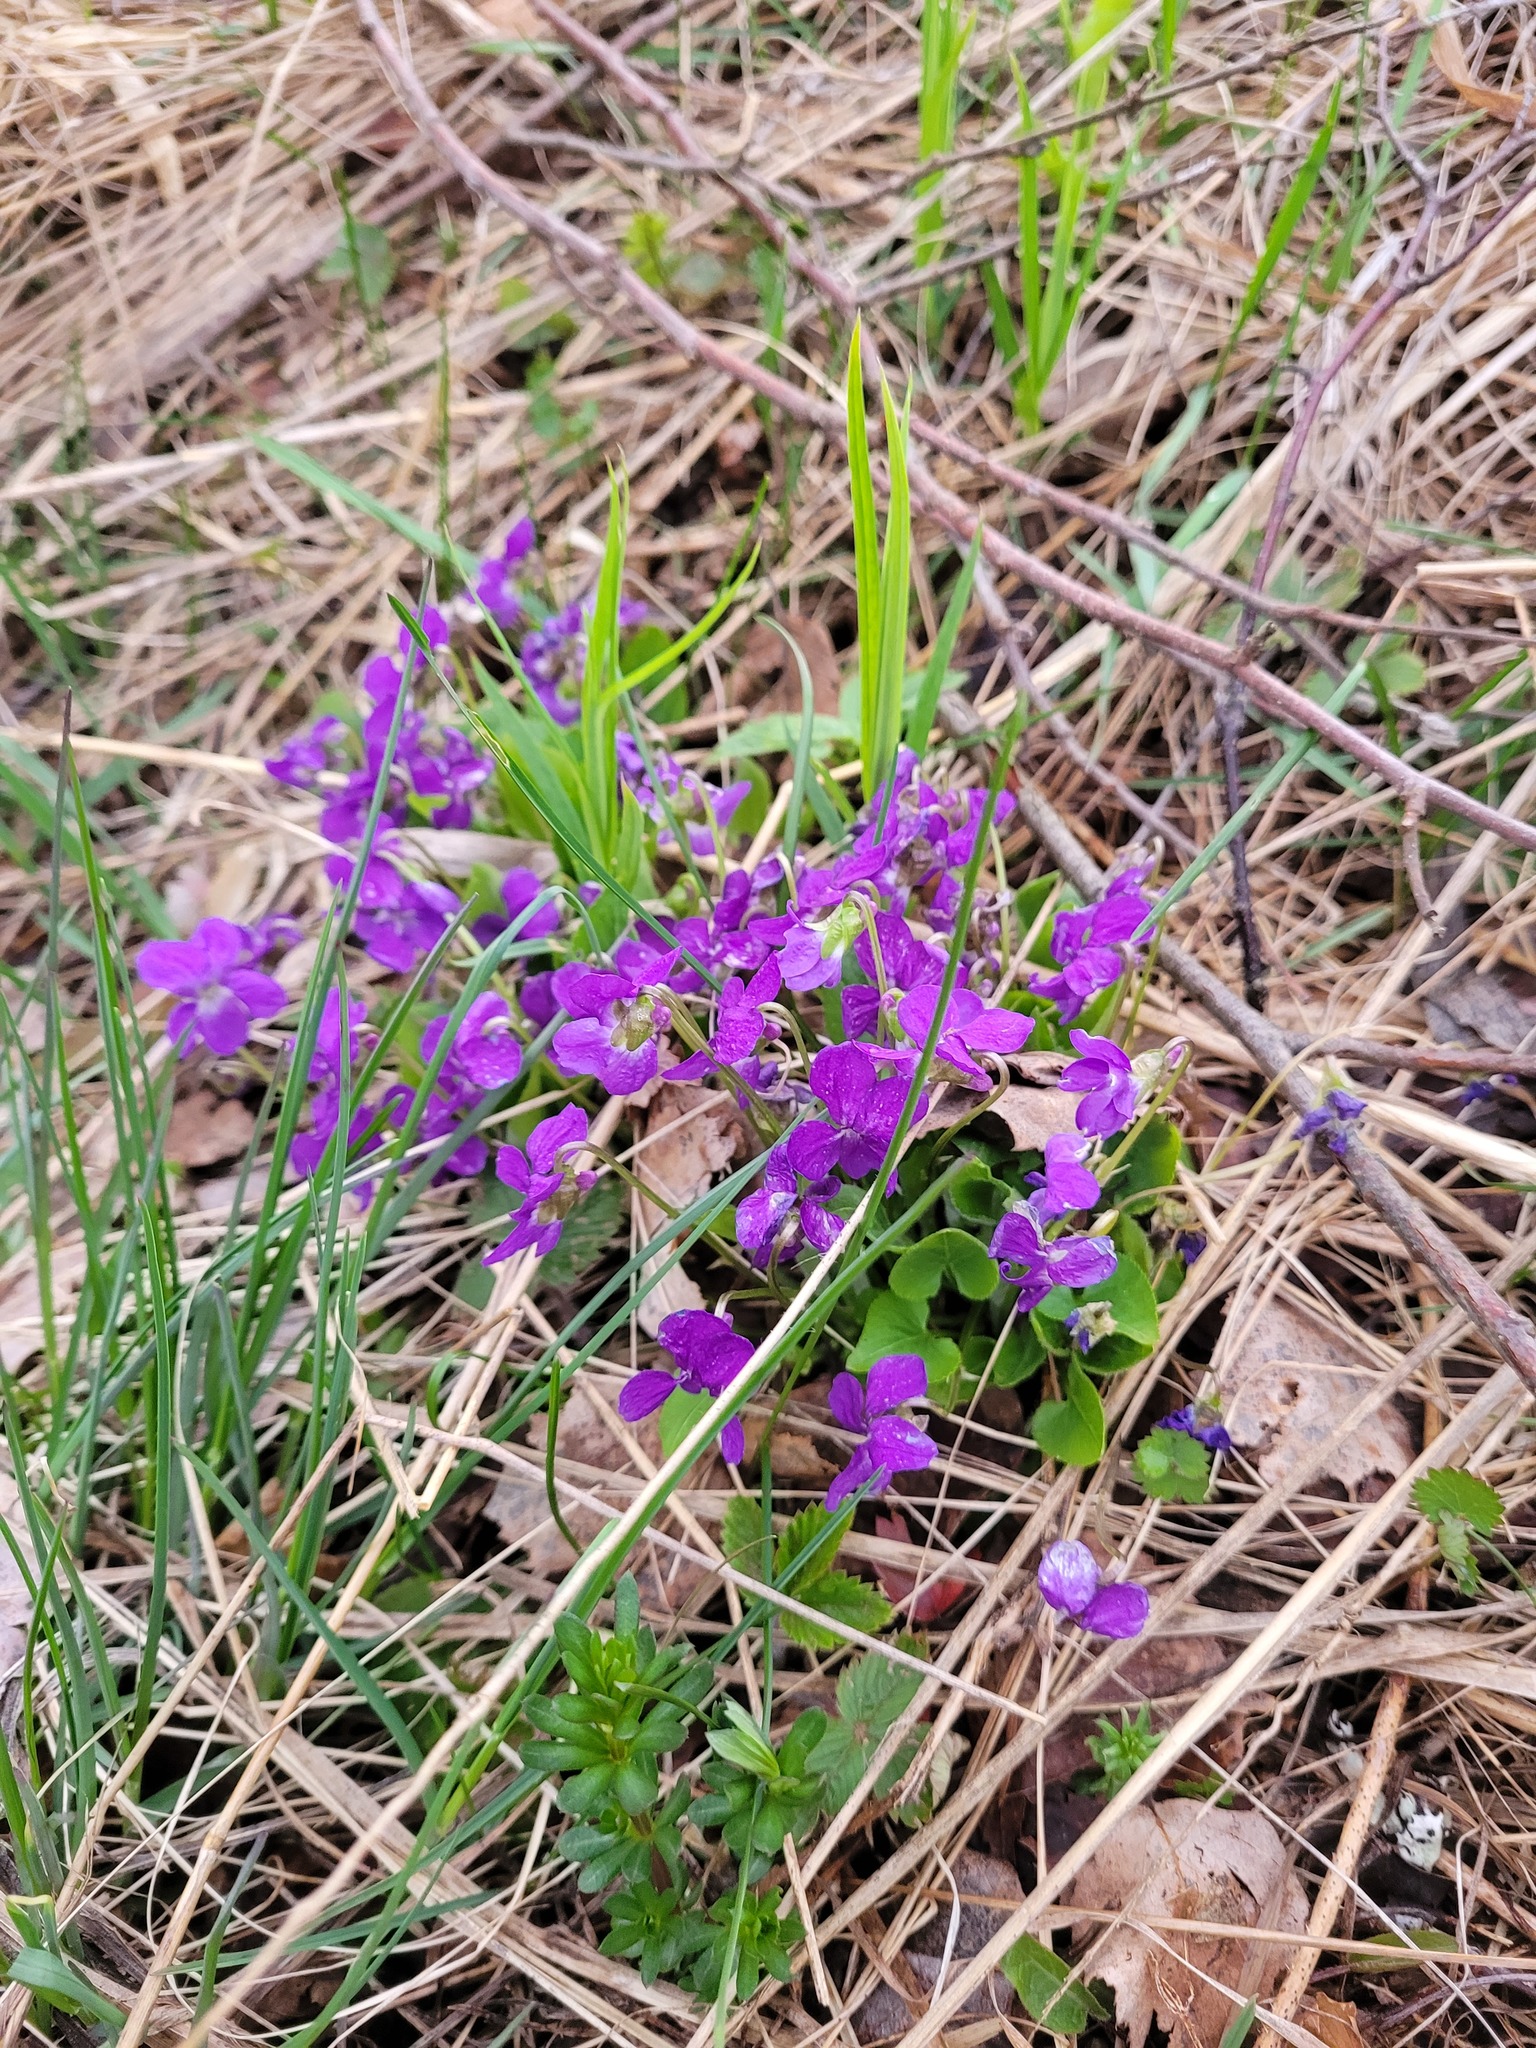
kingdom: Plantae
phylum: Tracheophyta
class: Magnoliopsida
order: Malpighiales
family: Violaceae
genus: Viola
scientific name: Viola hirta
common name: Hairy violet
